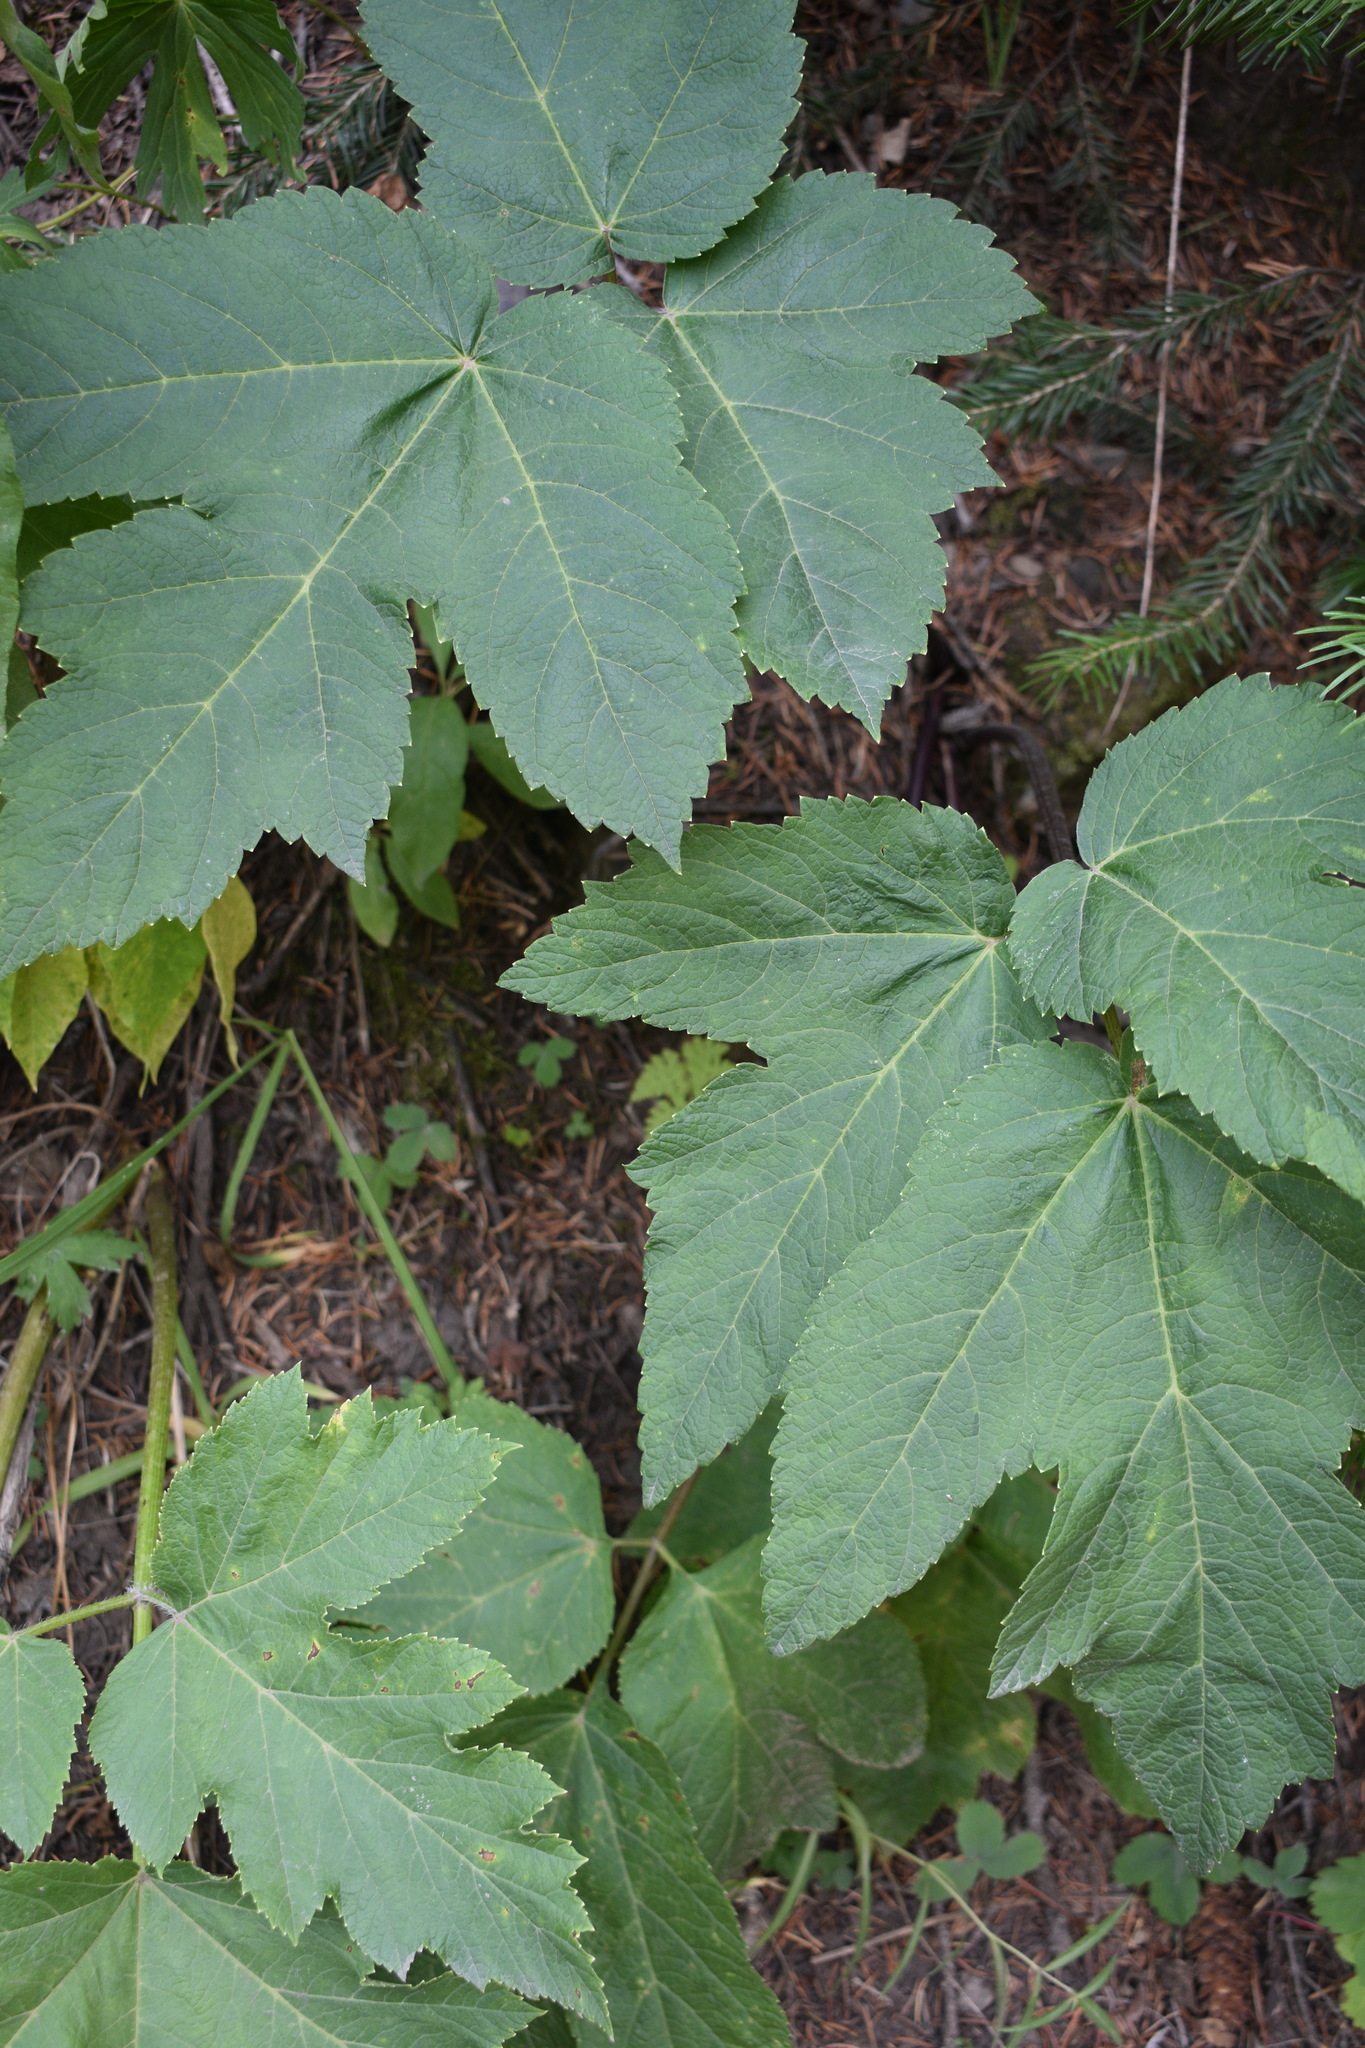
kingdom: Plantae
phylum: Tracheophyta
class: Magnoliopsida
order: Apiales
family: Apiaceae
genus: Heracleum
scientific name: Heracleum maximum
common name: American cow parsnip
